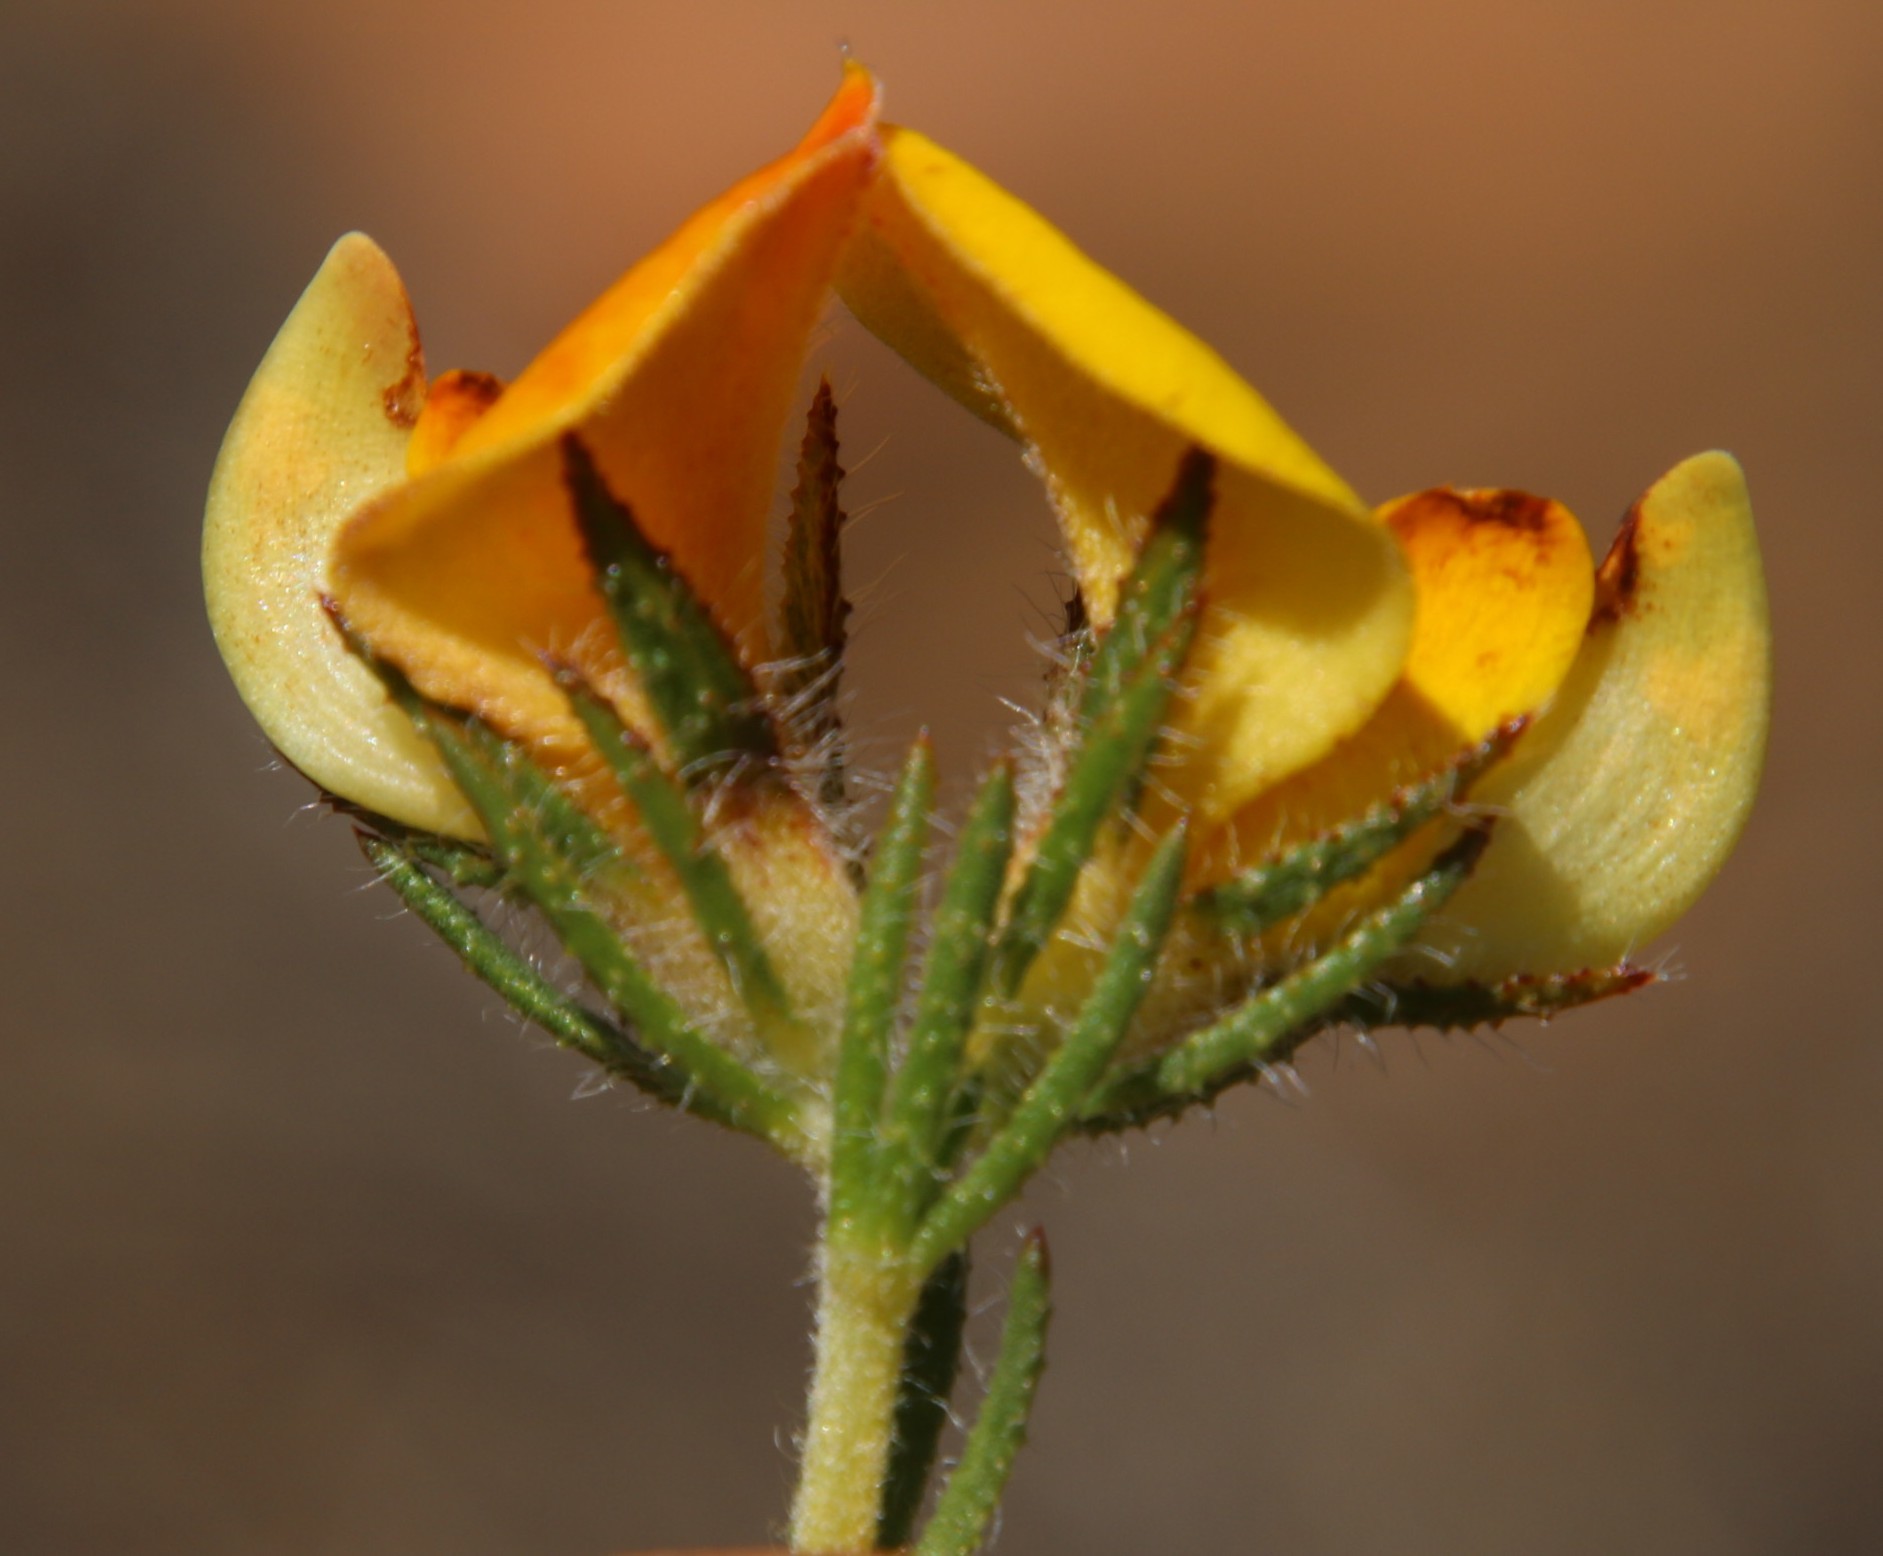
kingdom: Plantae
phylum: Tracheophyta
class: Magnoliopsida
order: Fabales
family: Fabaceae
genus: Aspalathus
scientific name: Aspalathus ciliaris
